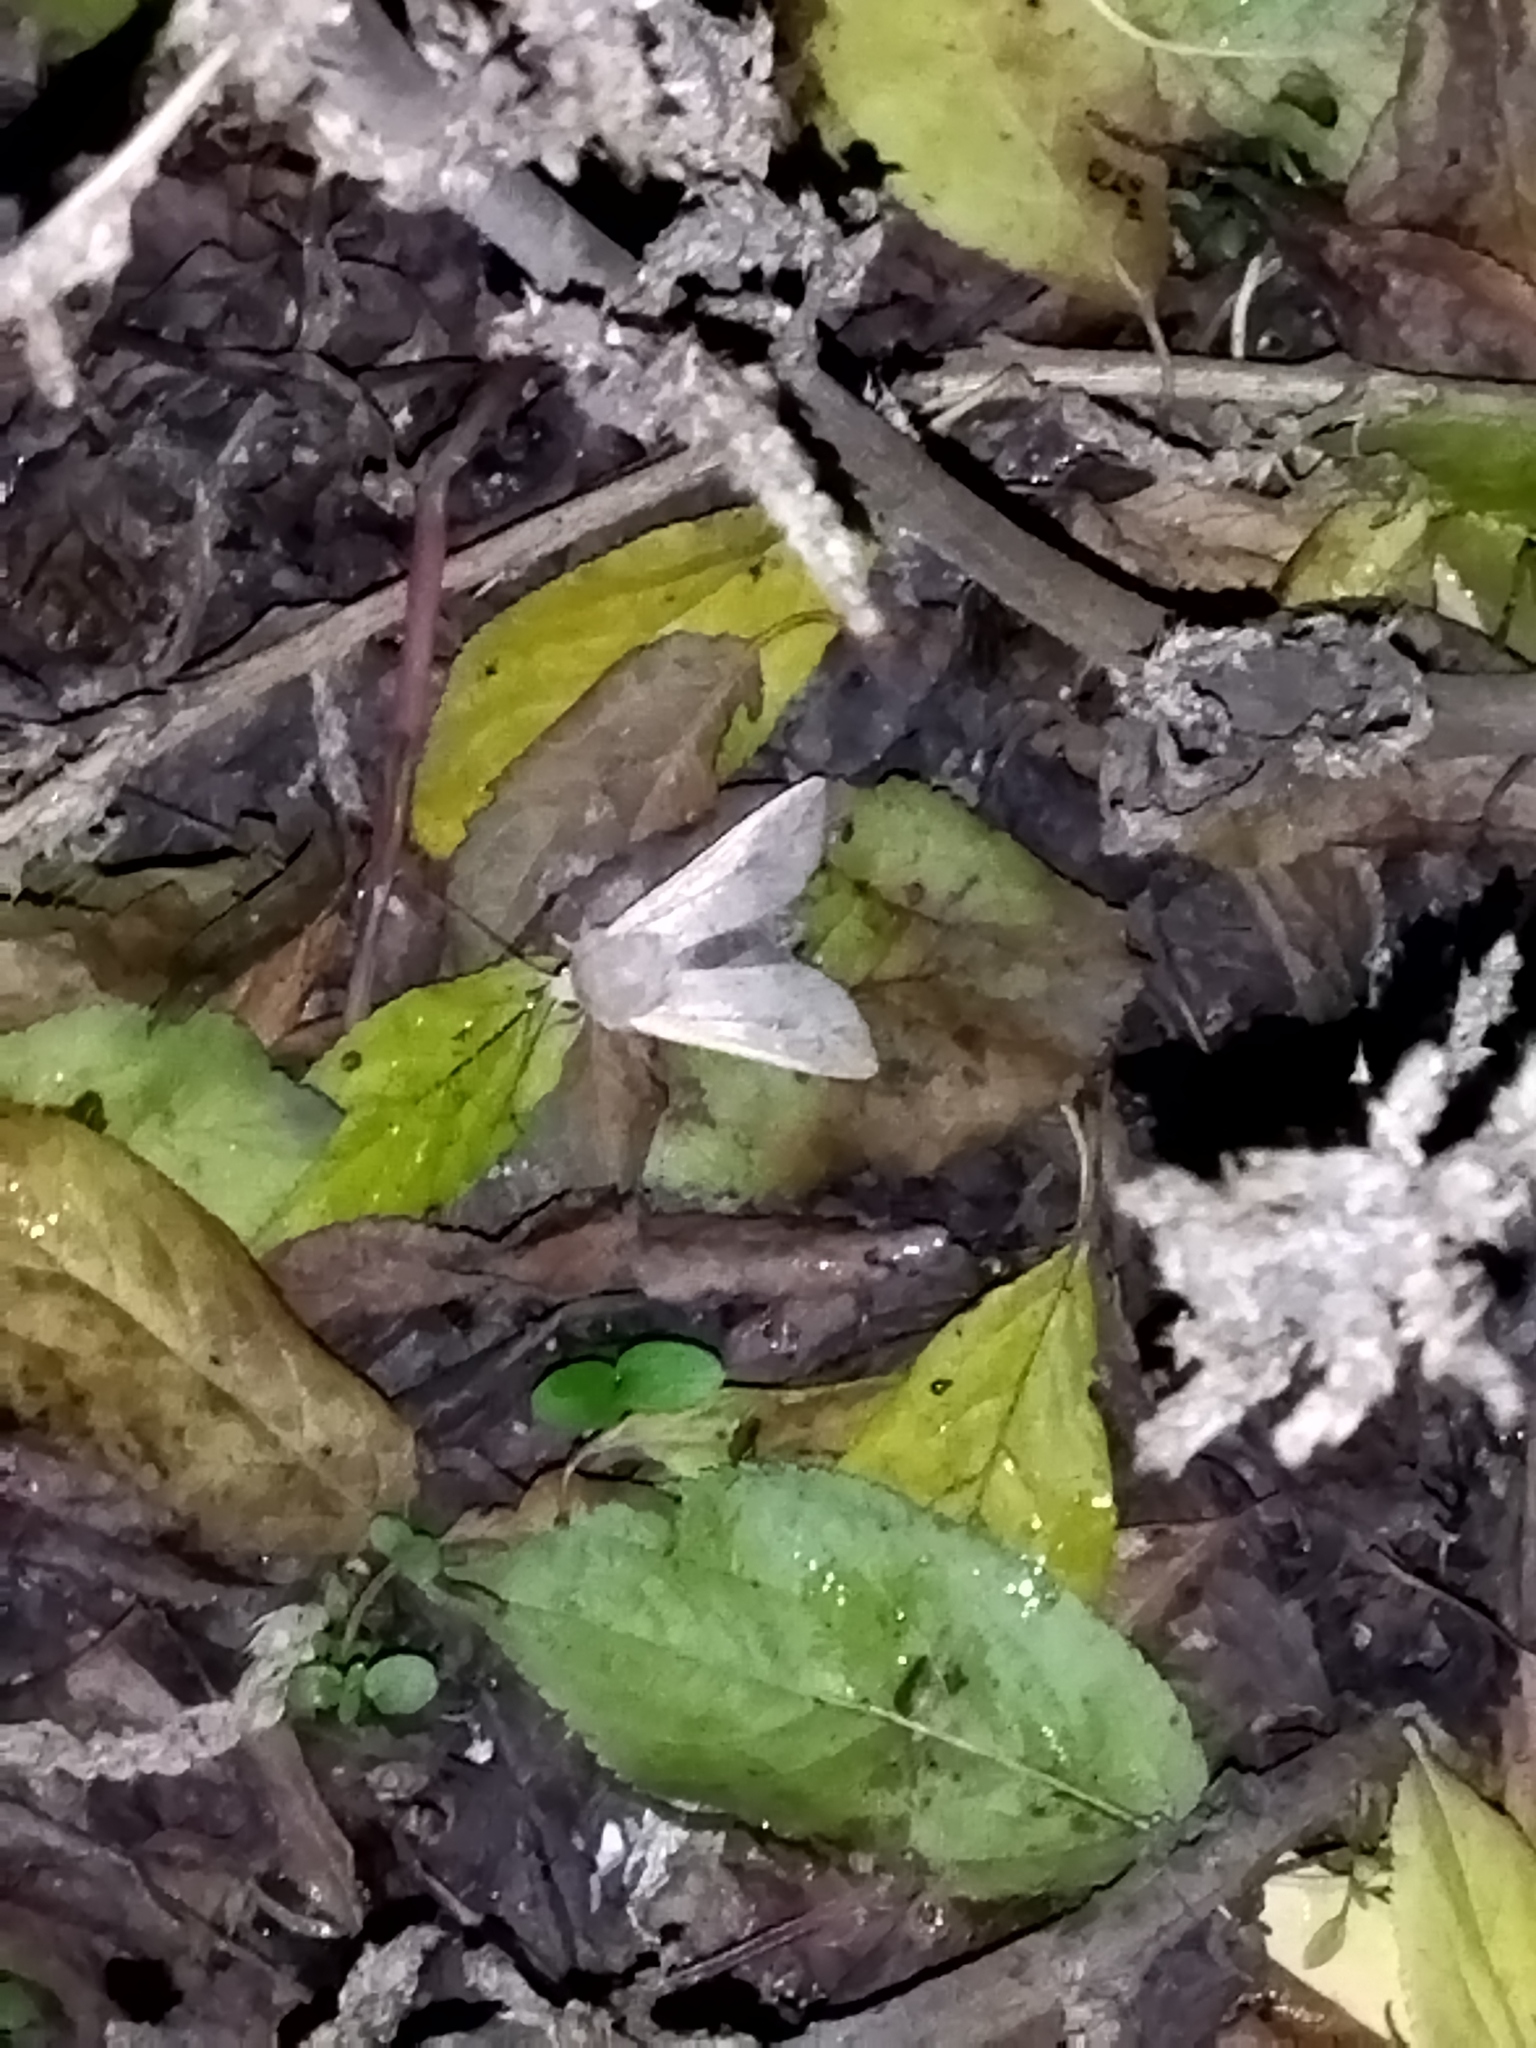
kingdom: Animalia
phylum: Arthropoda
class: Insecta
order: Lepidoptera
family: Noctuidae
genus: Mythimna
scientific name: Mythimna unipuncta
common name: White-speck
